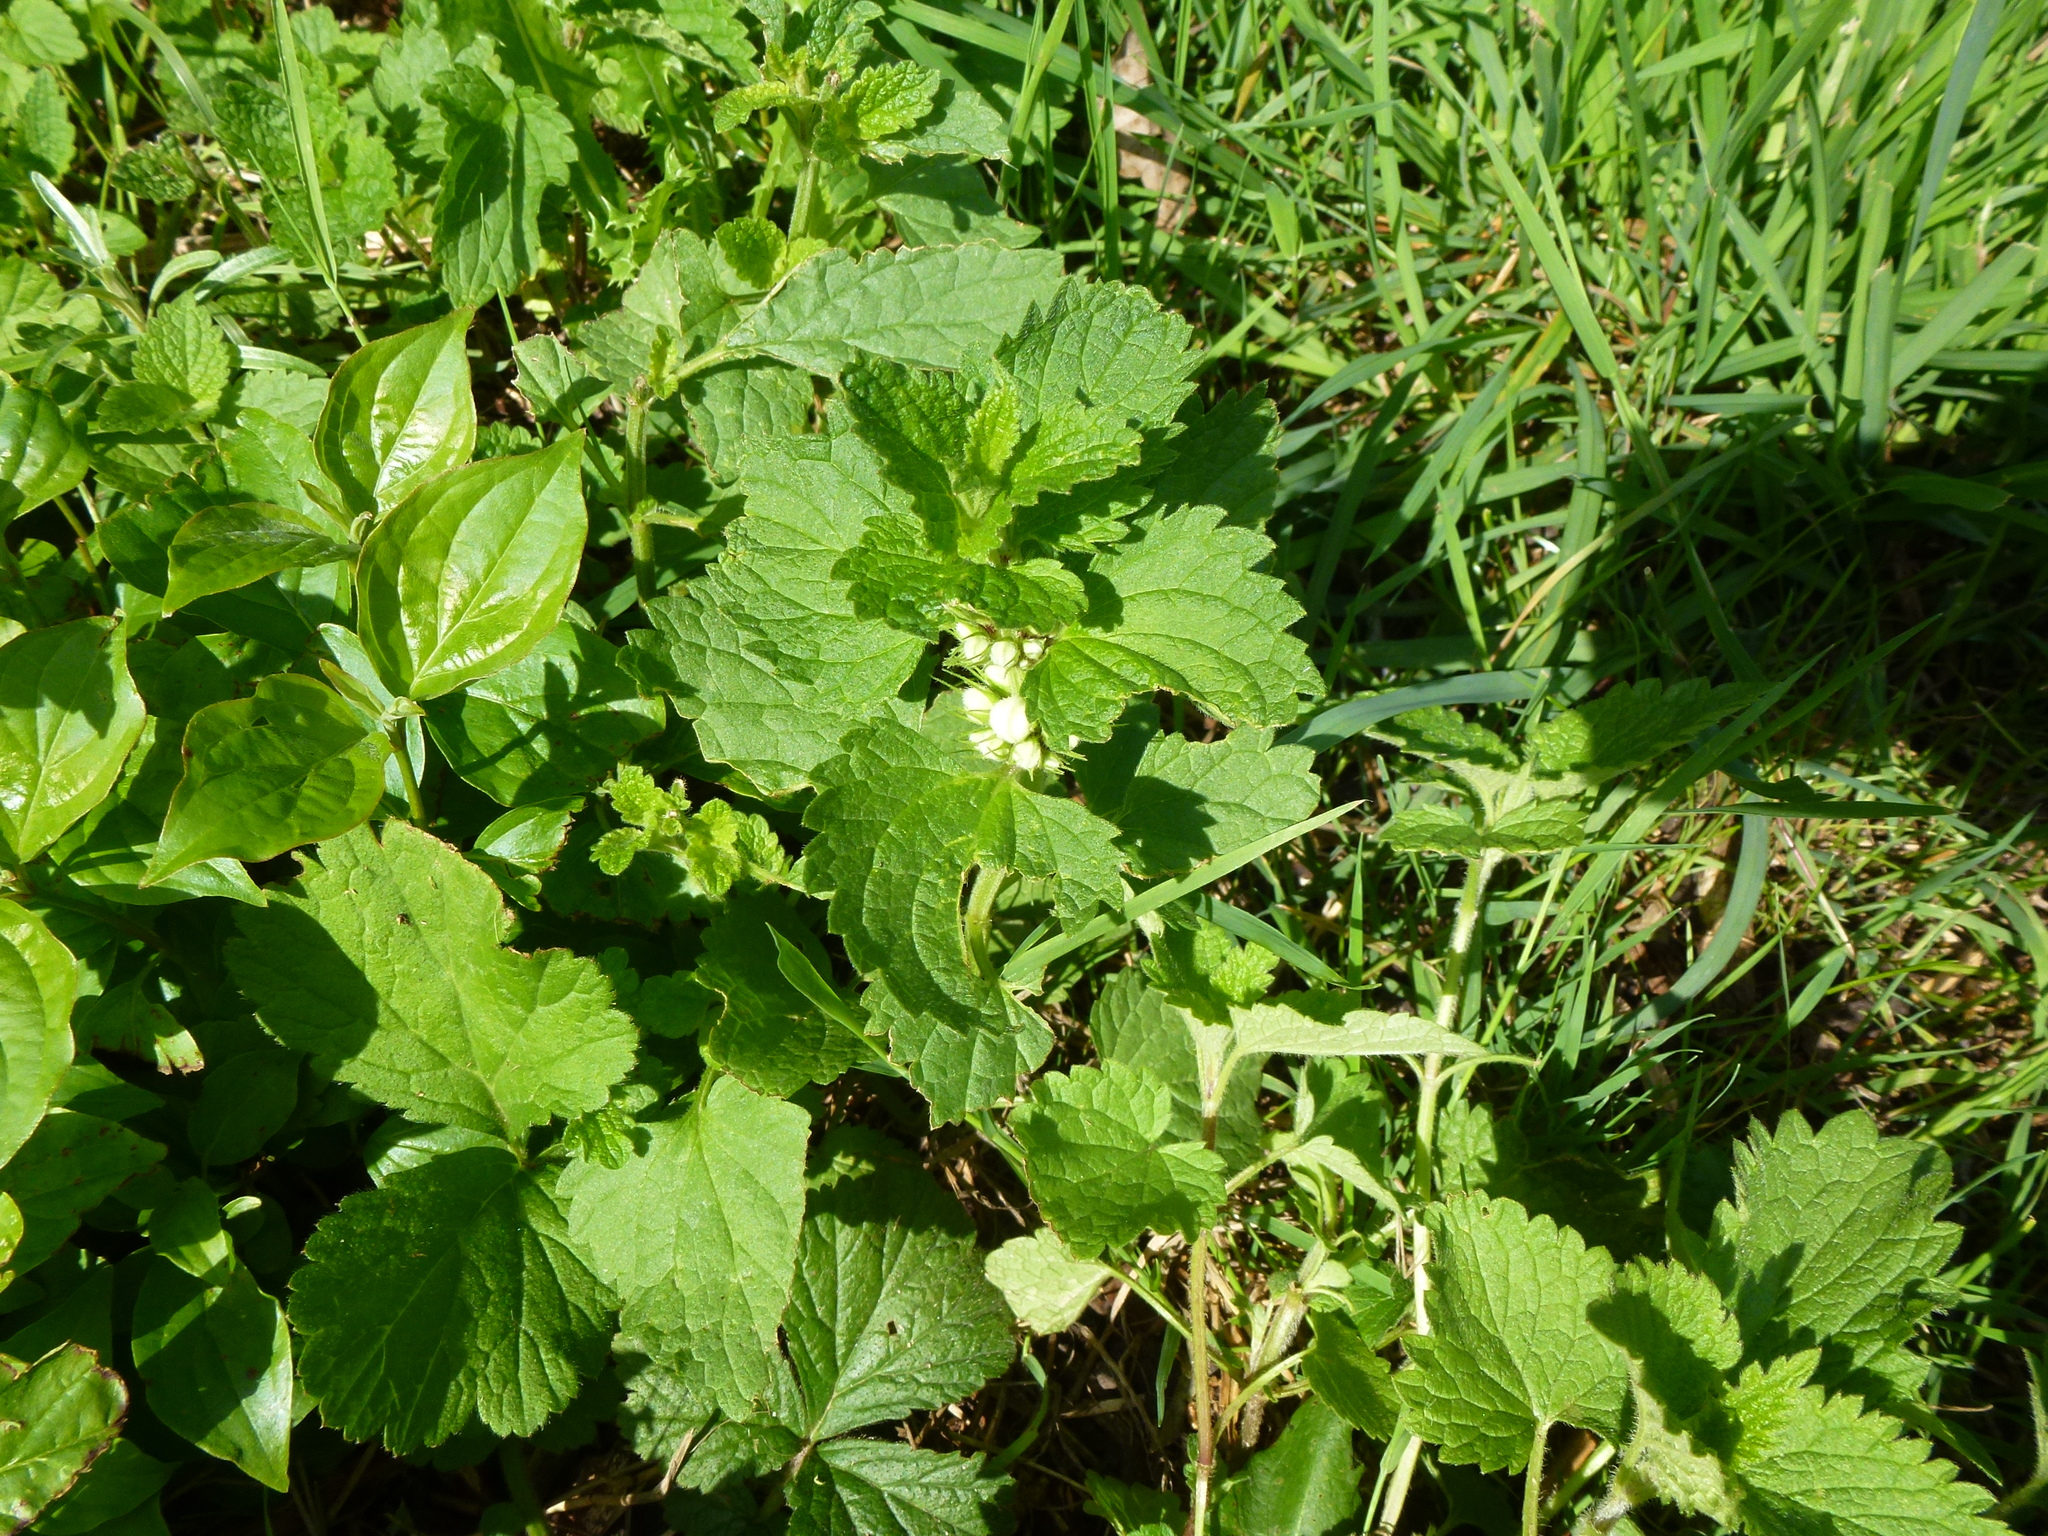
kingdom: Plantae
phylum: Tracheophyta
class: Magnoliopsida
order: Lamiales
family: Lamiaceae
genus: Lamium
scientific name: Lamium album
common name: White dead-nettle
